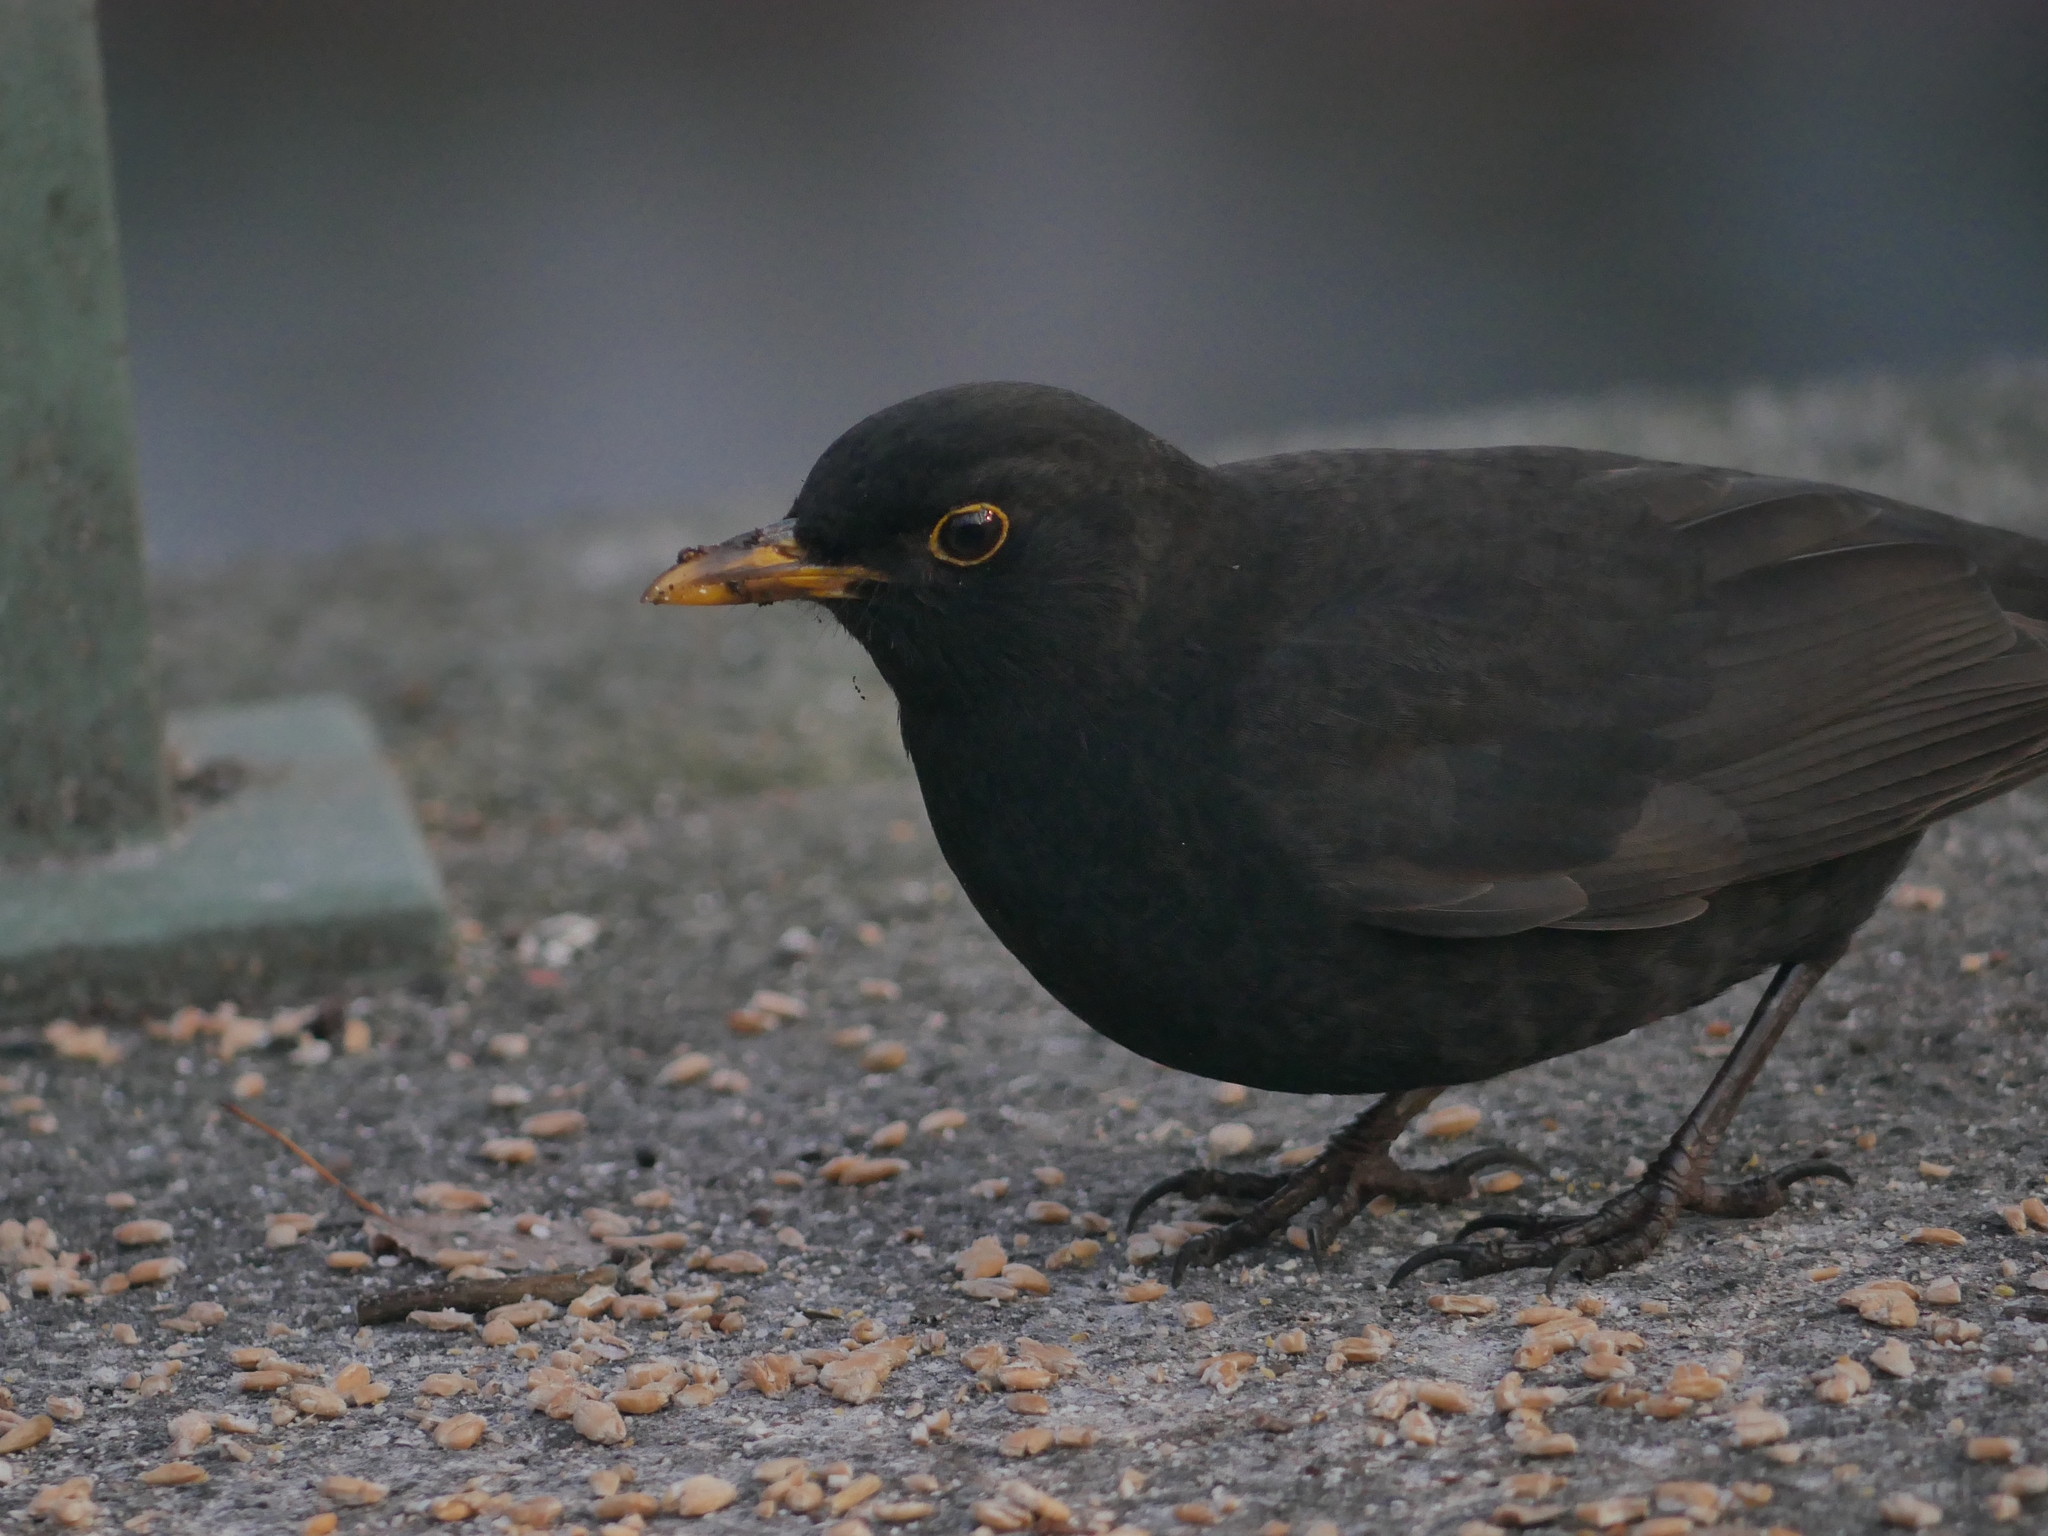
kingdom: Animalia
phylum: Chordata
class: Aves
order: Passeriformes
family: Turdidae
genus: Turdus
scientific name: Turdus merula
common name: Common blackbird
